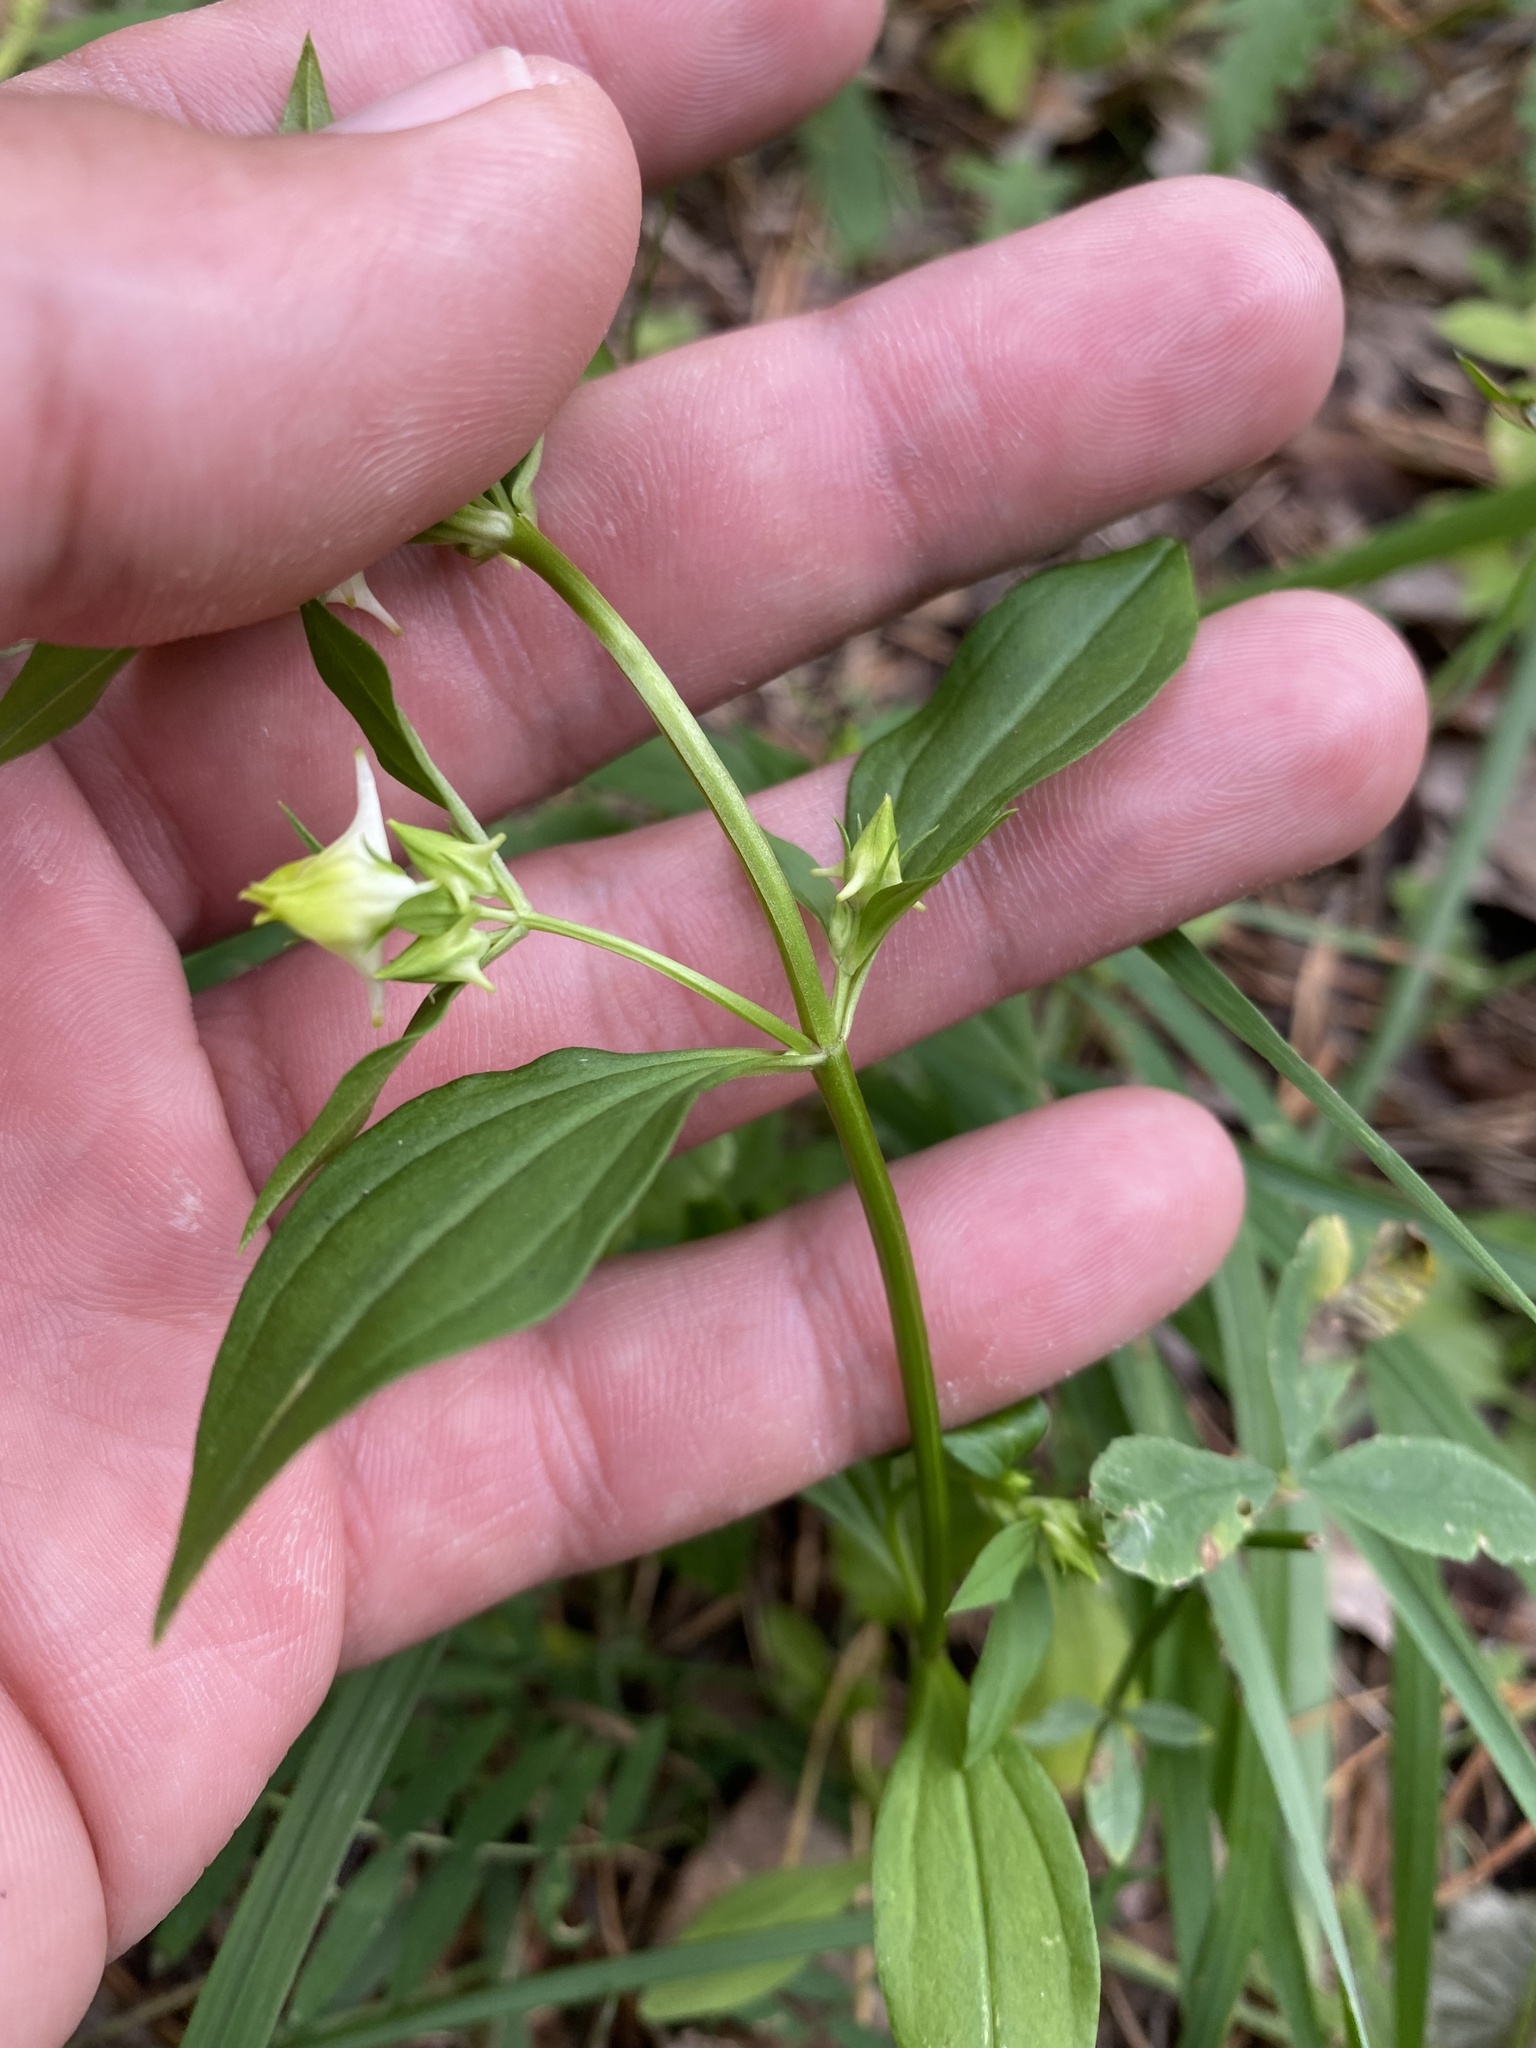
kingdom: Plantae
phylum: Tracheophyta
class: Magnoliopsida
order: Gentianales
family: Gentianaceae
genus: Halenia
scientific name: Halenia corniculata
